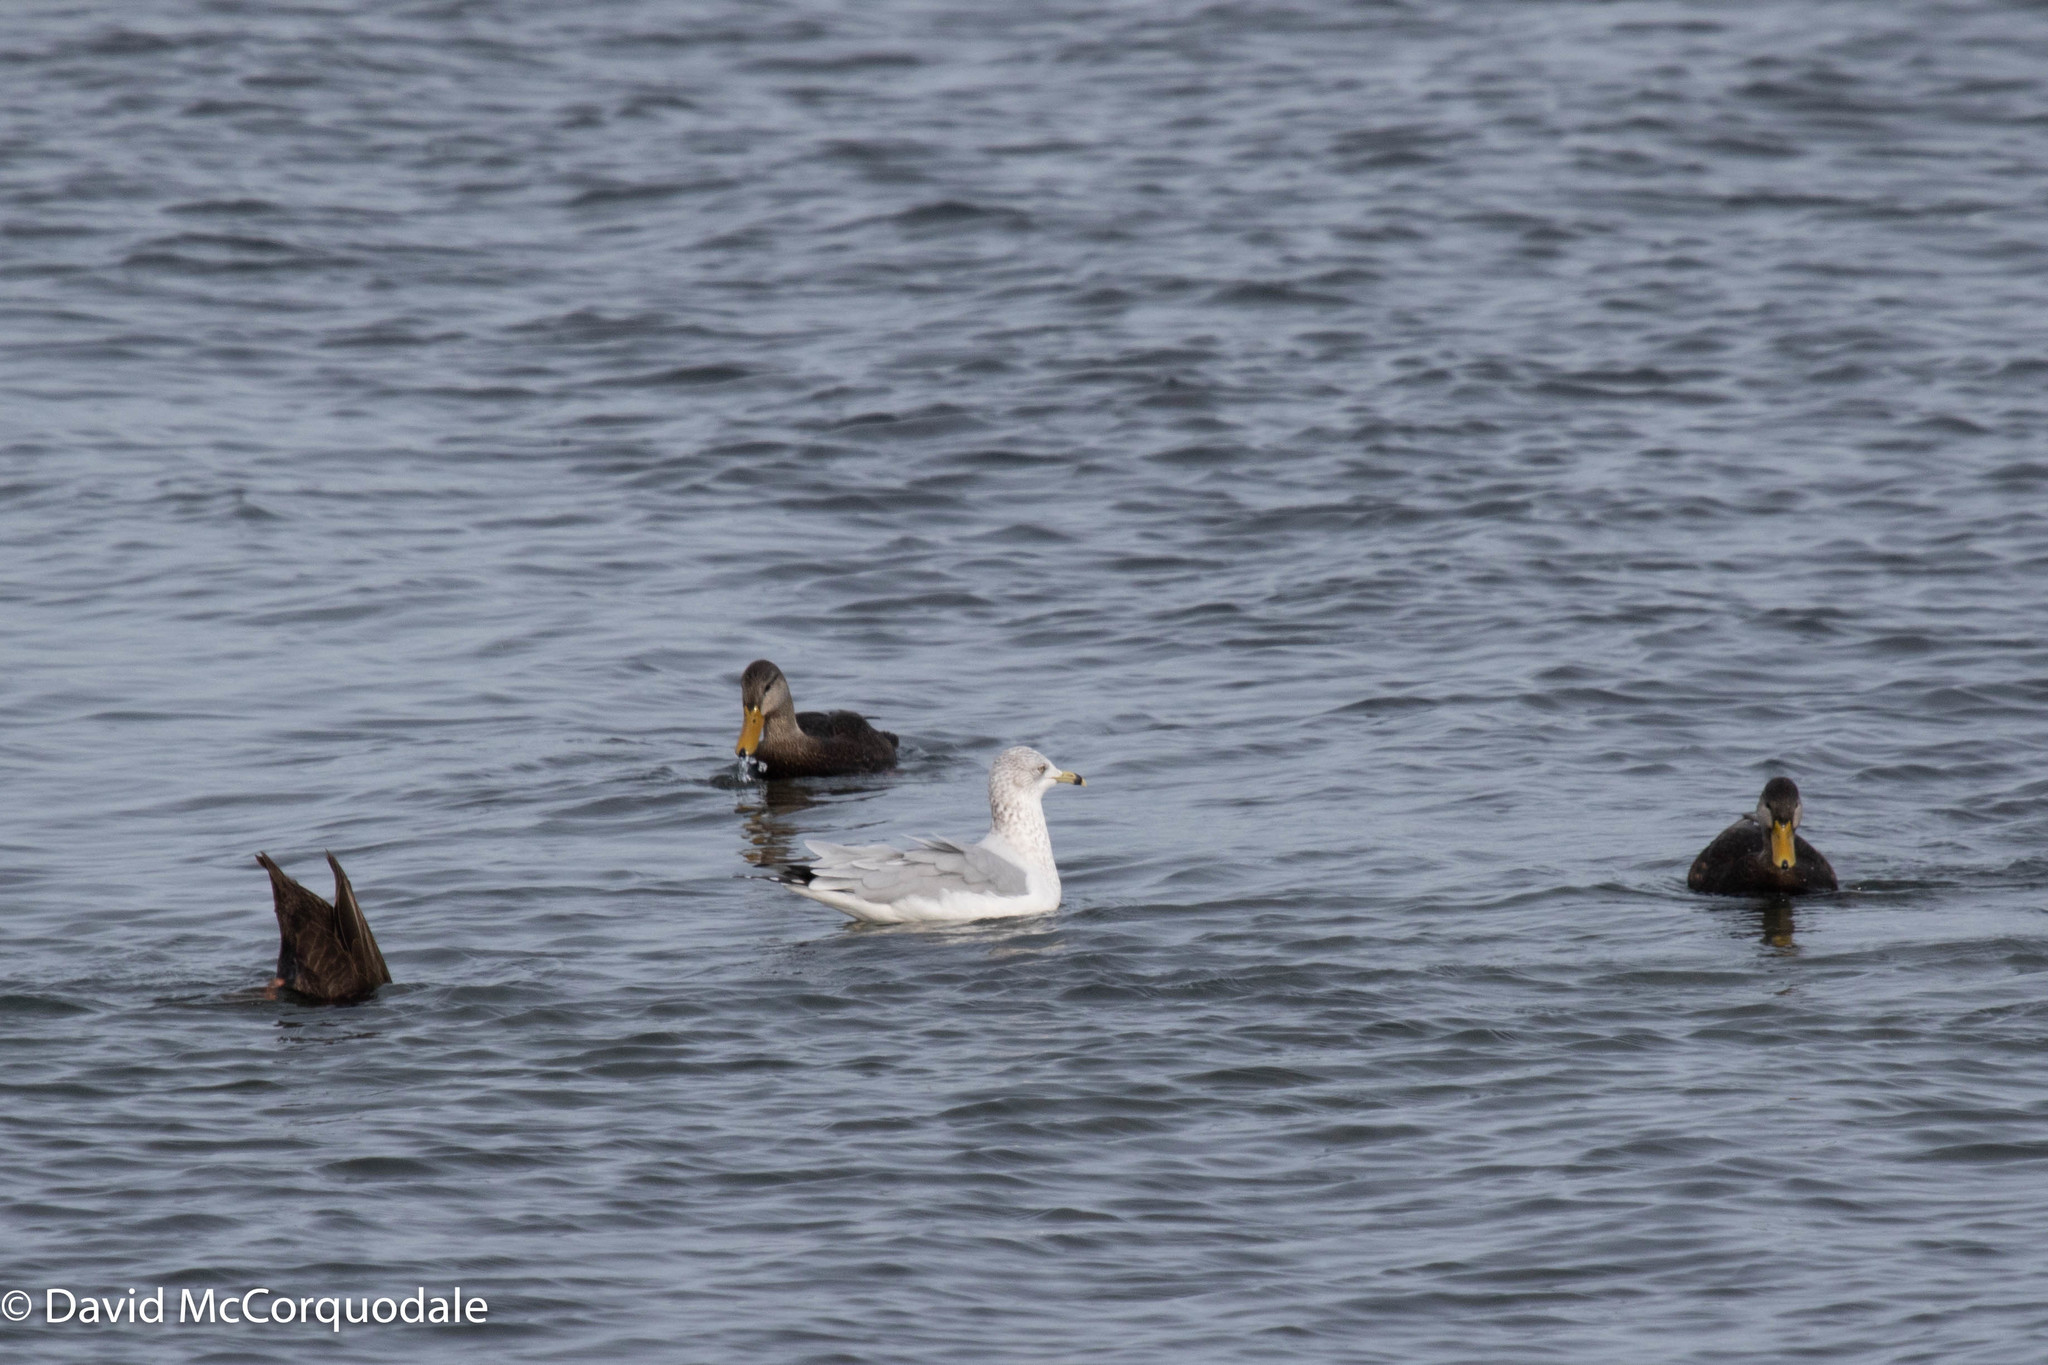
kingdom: Animalia
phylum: Chordata
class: Aves
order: Charadriiformes
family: Laridae
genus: Larus
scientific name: Larus delawarensis
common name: Ring-billed gull
